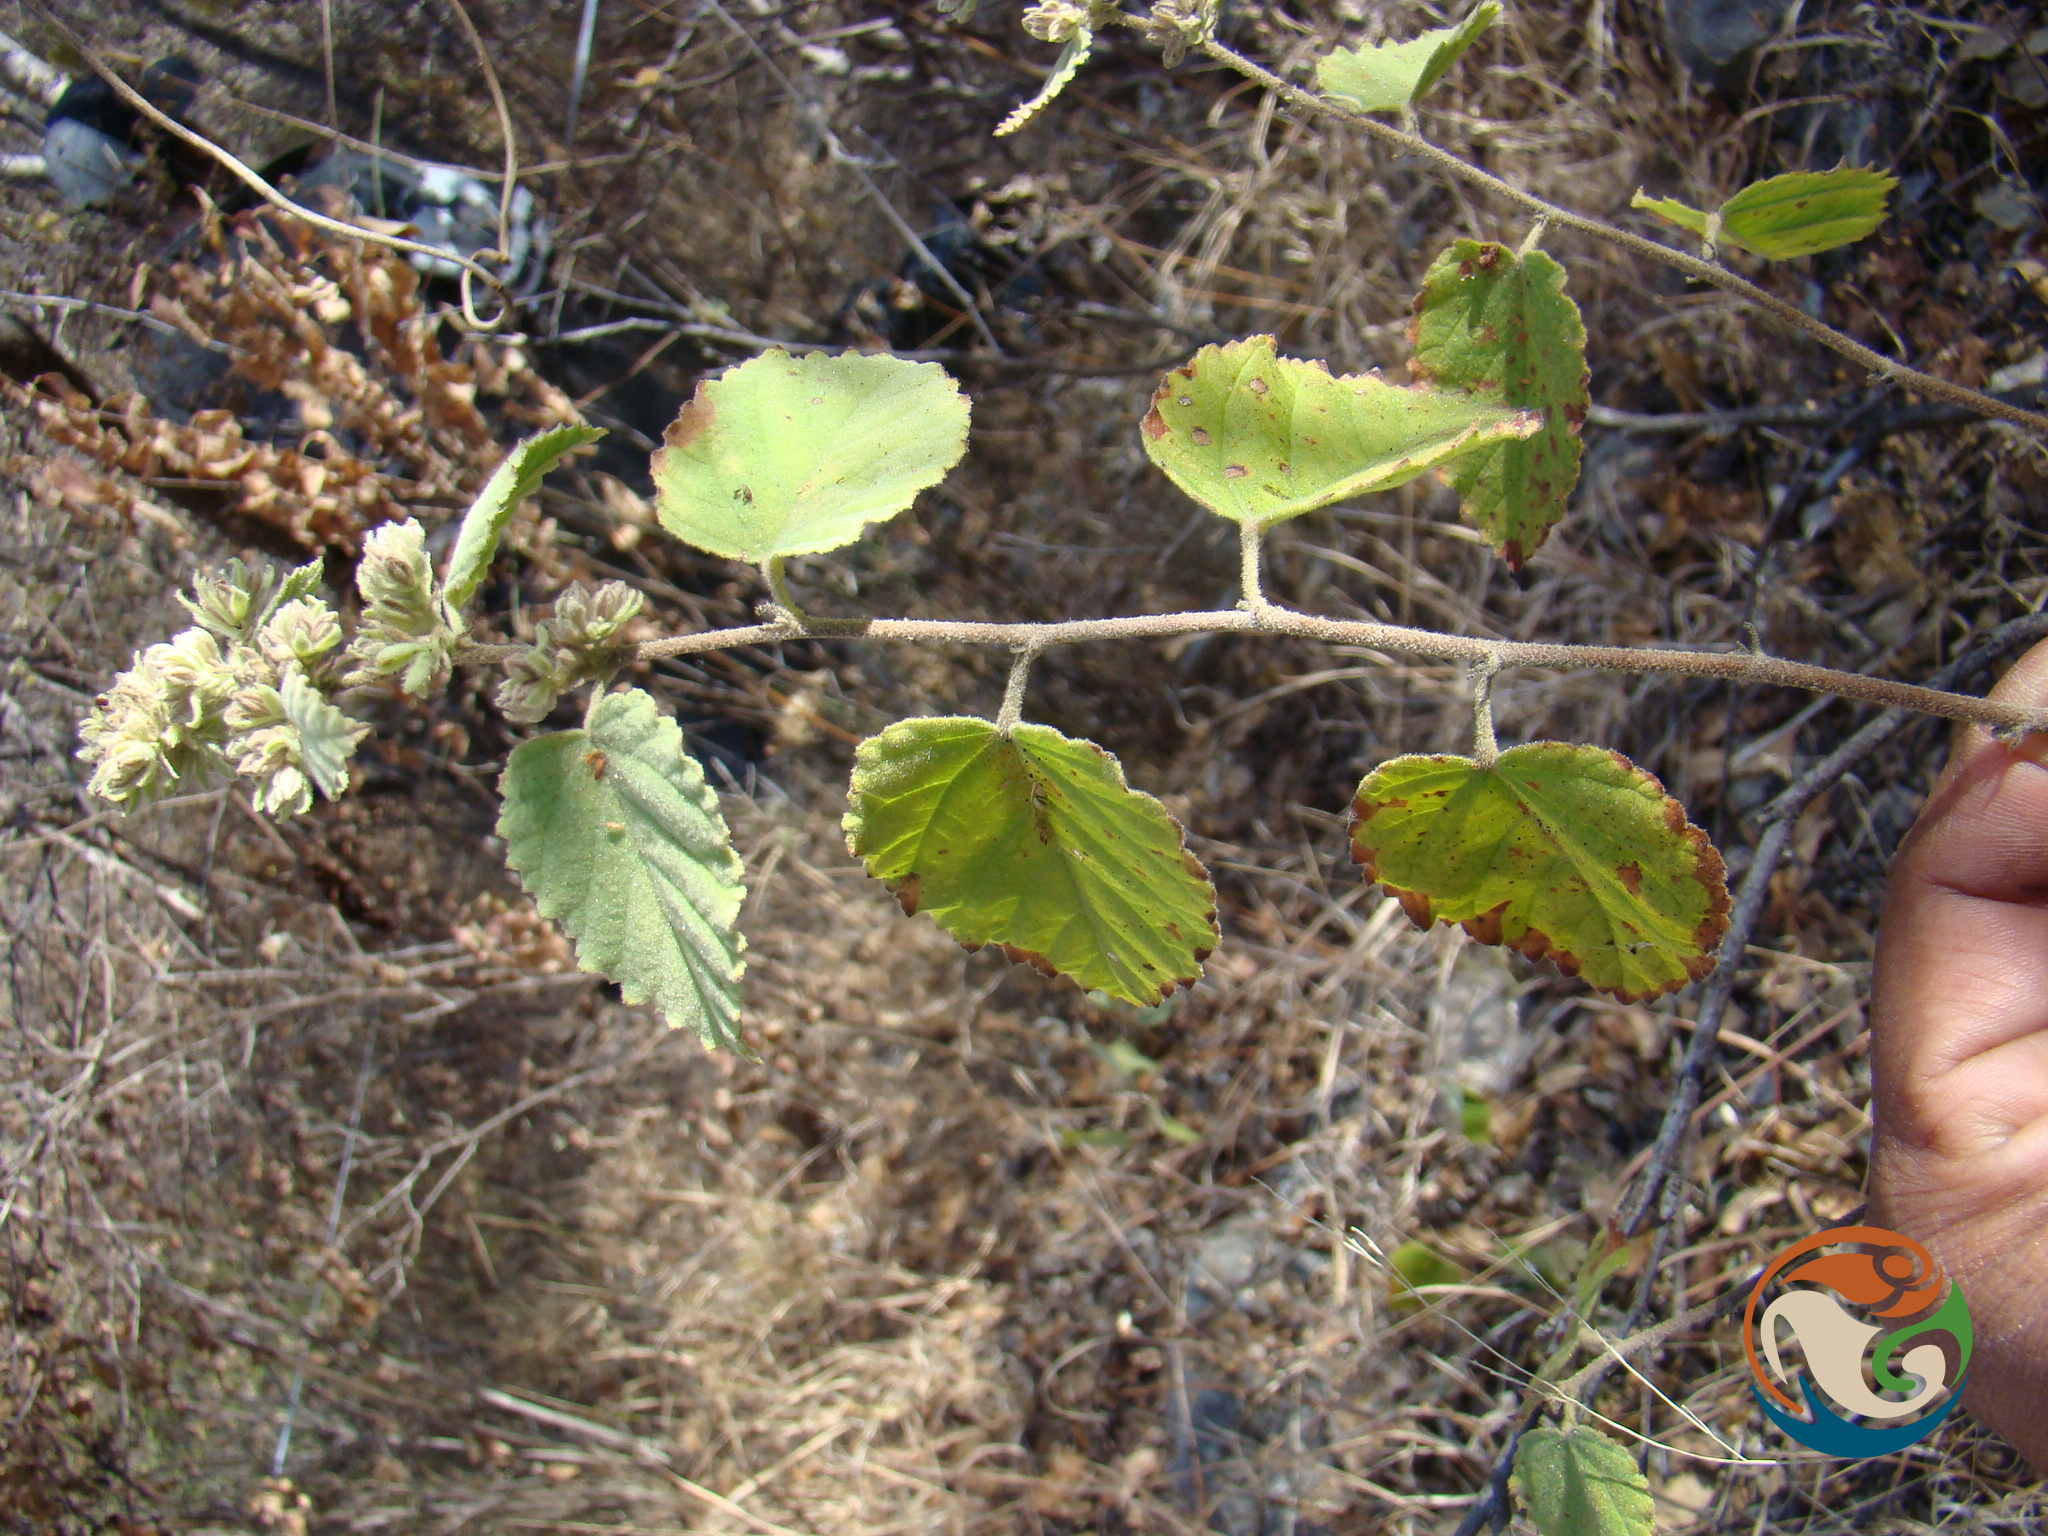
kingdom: Plantae
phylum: Tracheophyta
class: Magnoliopsida
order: Malvales
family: Malvaceae
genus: Ayenia
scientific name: Ayenia ovata
